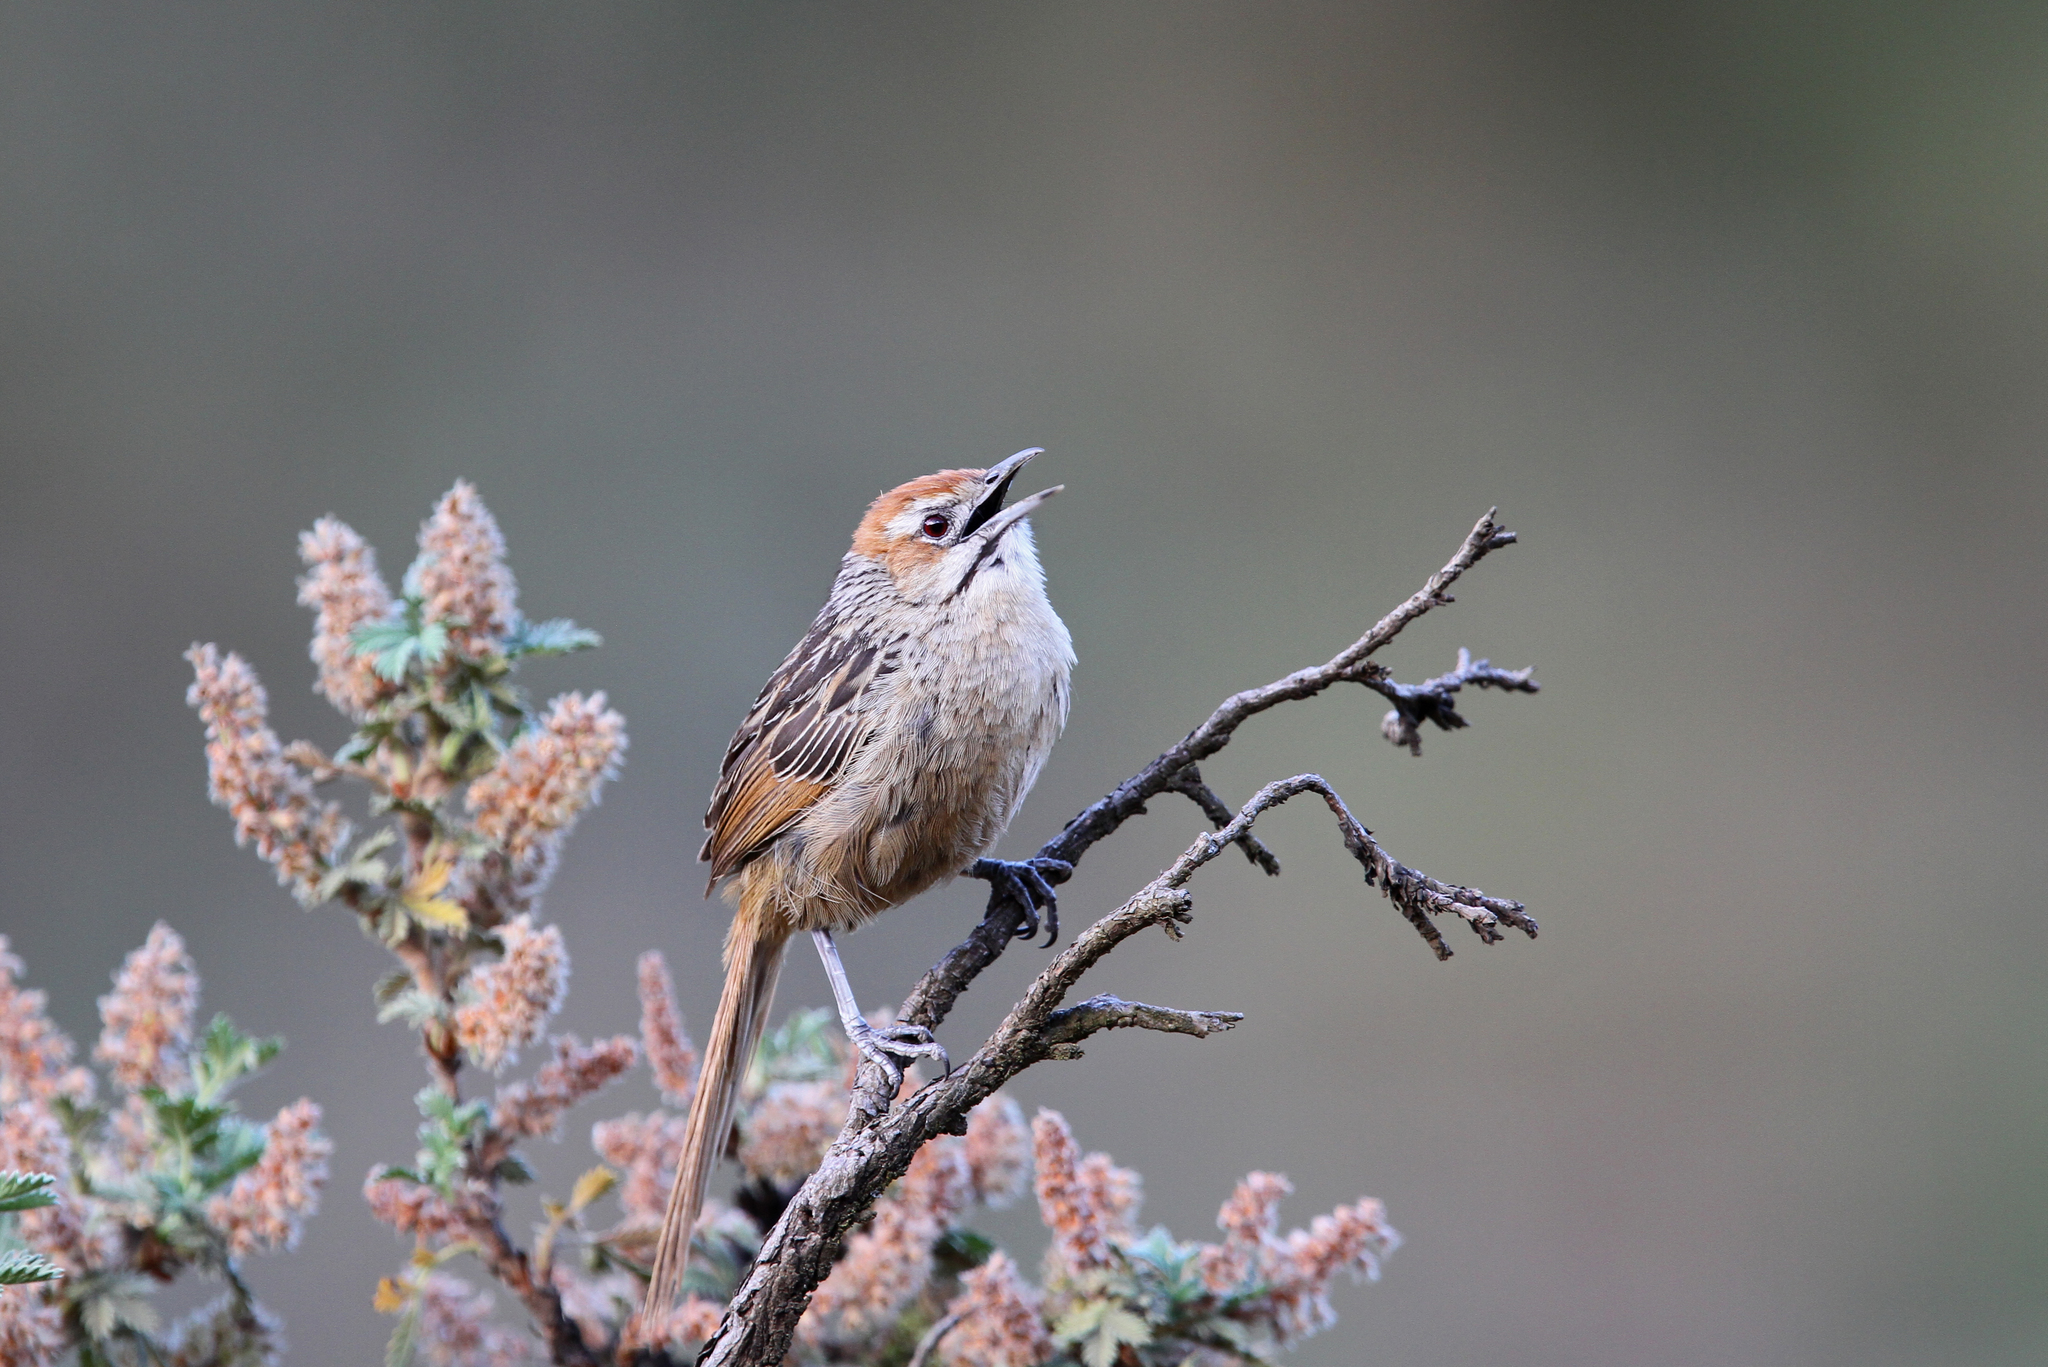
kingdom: Animalia
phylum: Chordata
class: Aves
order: Passeriformes
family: Macrosphenidae
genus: Sphenoeacus
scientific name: Sphenoeacus afer
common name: Cape grassbird
